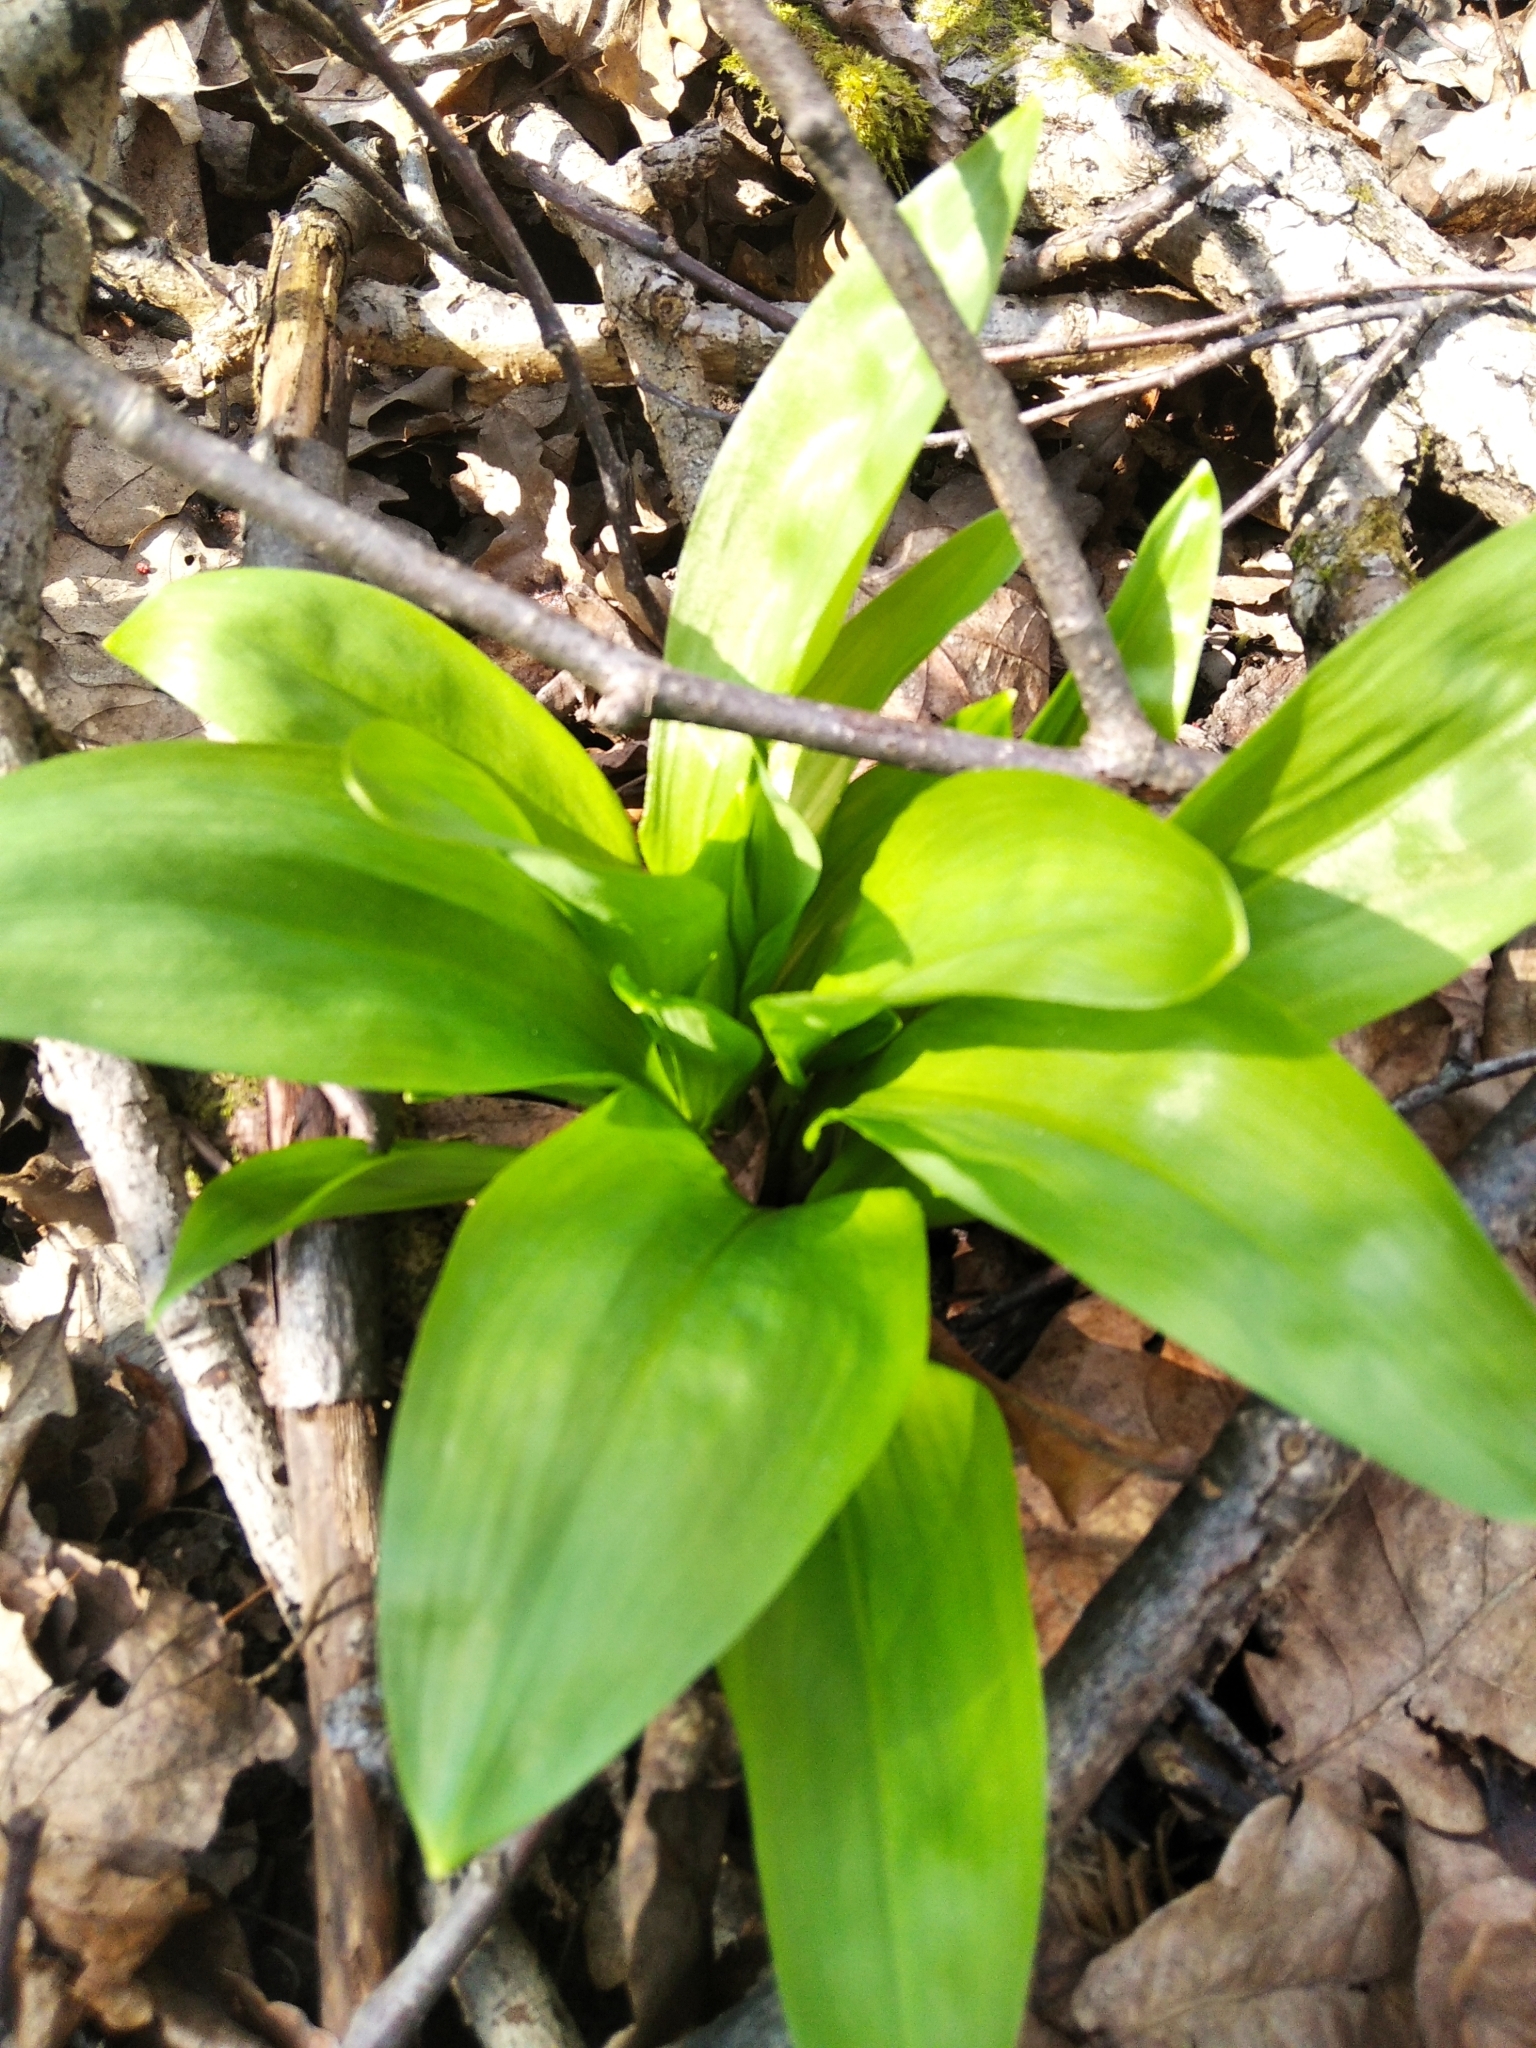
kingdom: Plantae
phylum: Tracheophyta
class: Liliopsida
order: Asparagales
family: Amaryllidaceae
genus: Allium
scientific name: Allium ursinum
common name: Ramsons
